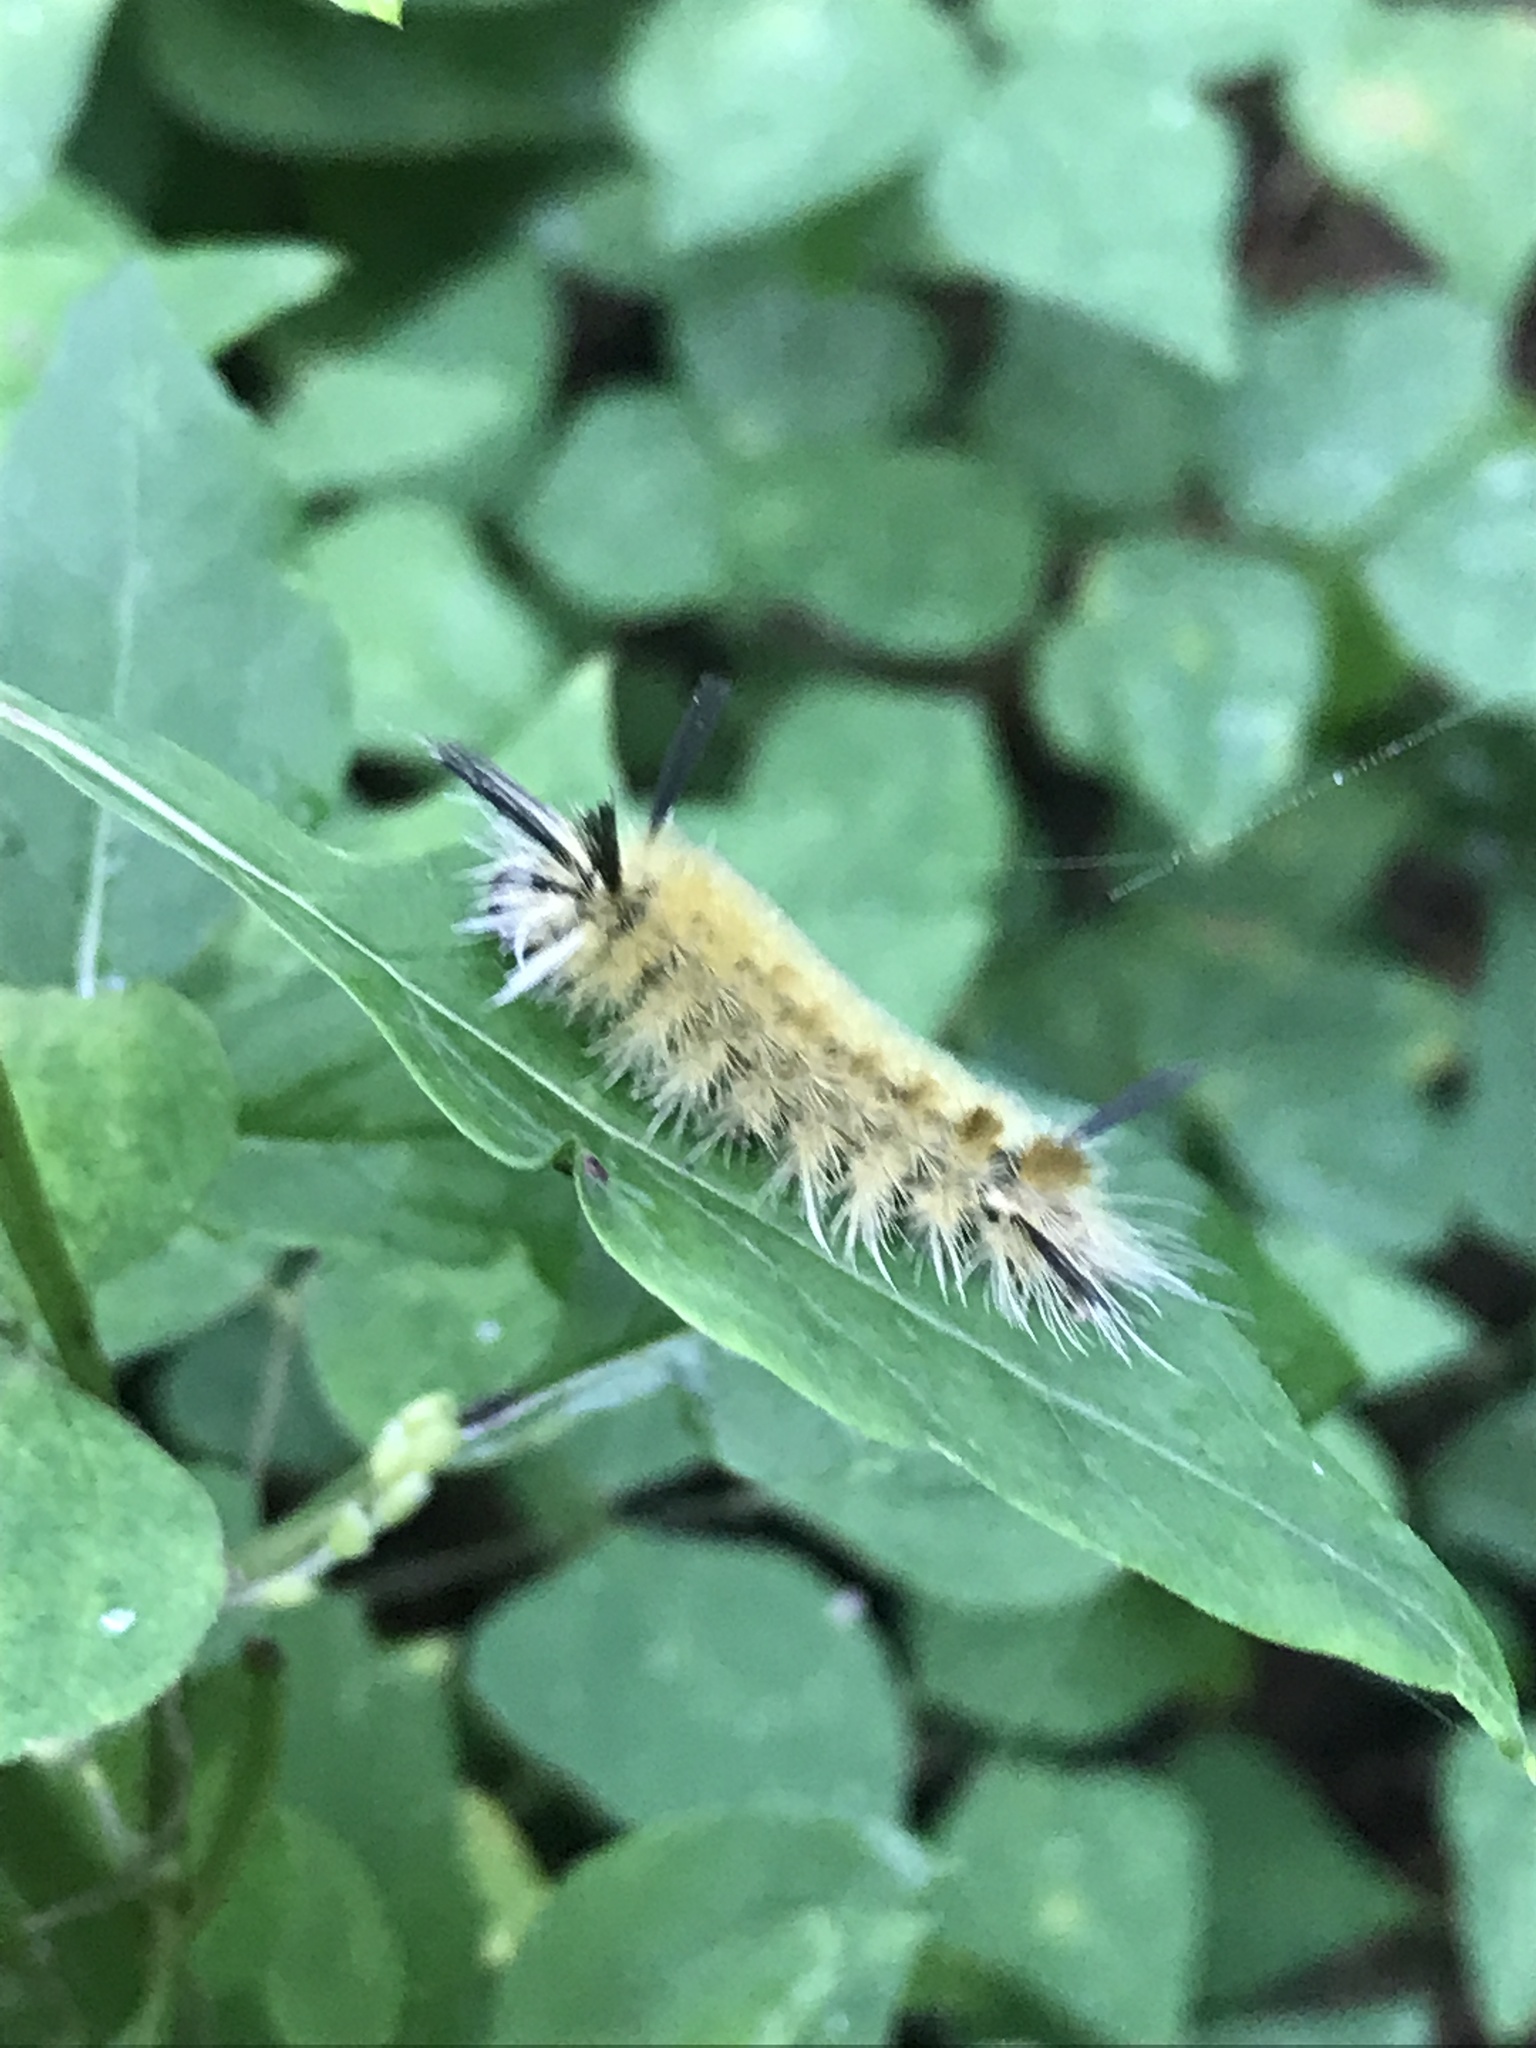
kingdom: Animalia
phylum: Arthropoda
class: Insecta
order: Lepidoptera
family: Erebidae
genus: Halysidota
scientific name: Halysidota tessellaris
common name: Banded tussock moth
